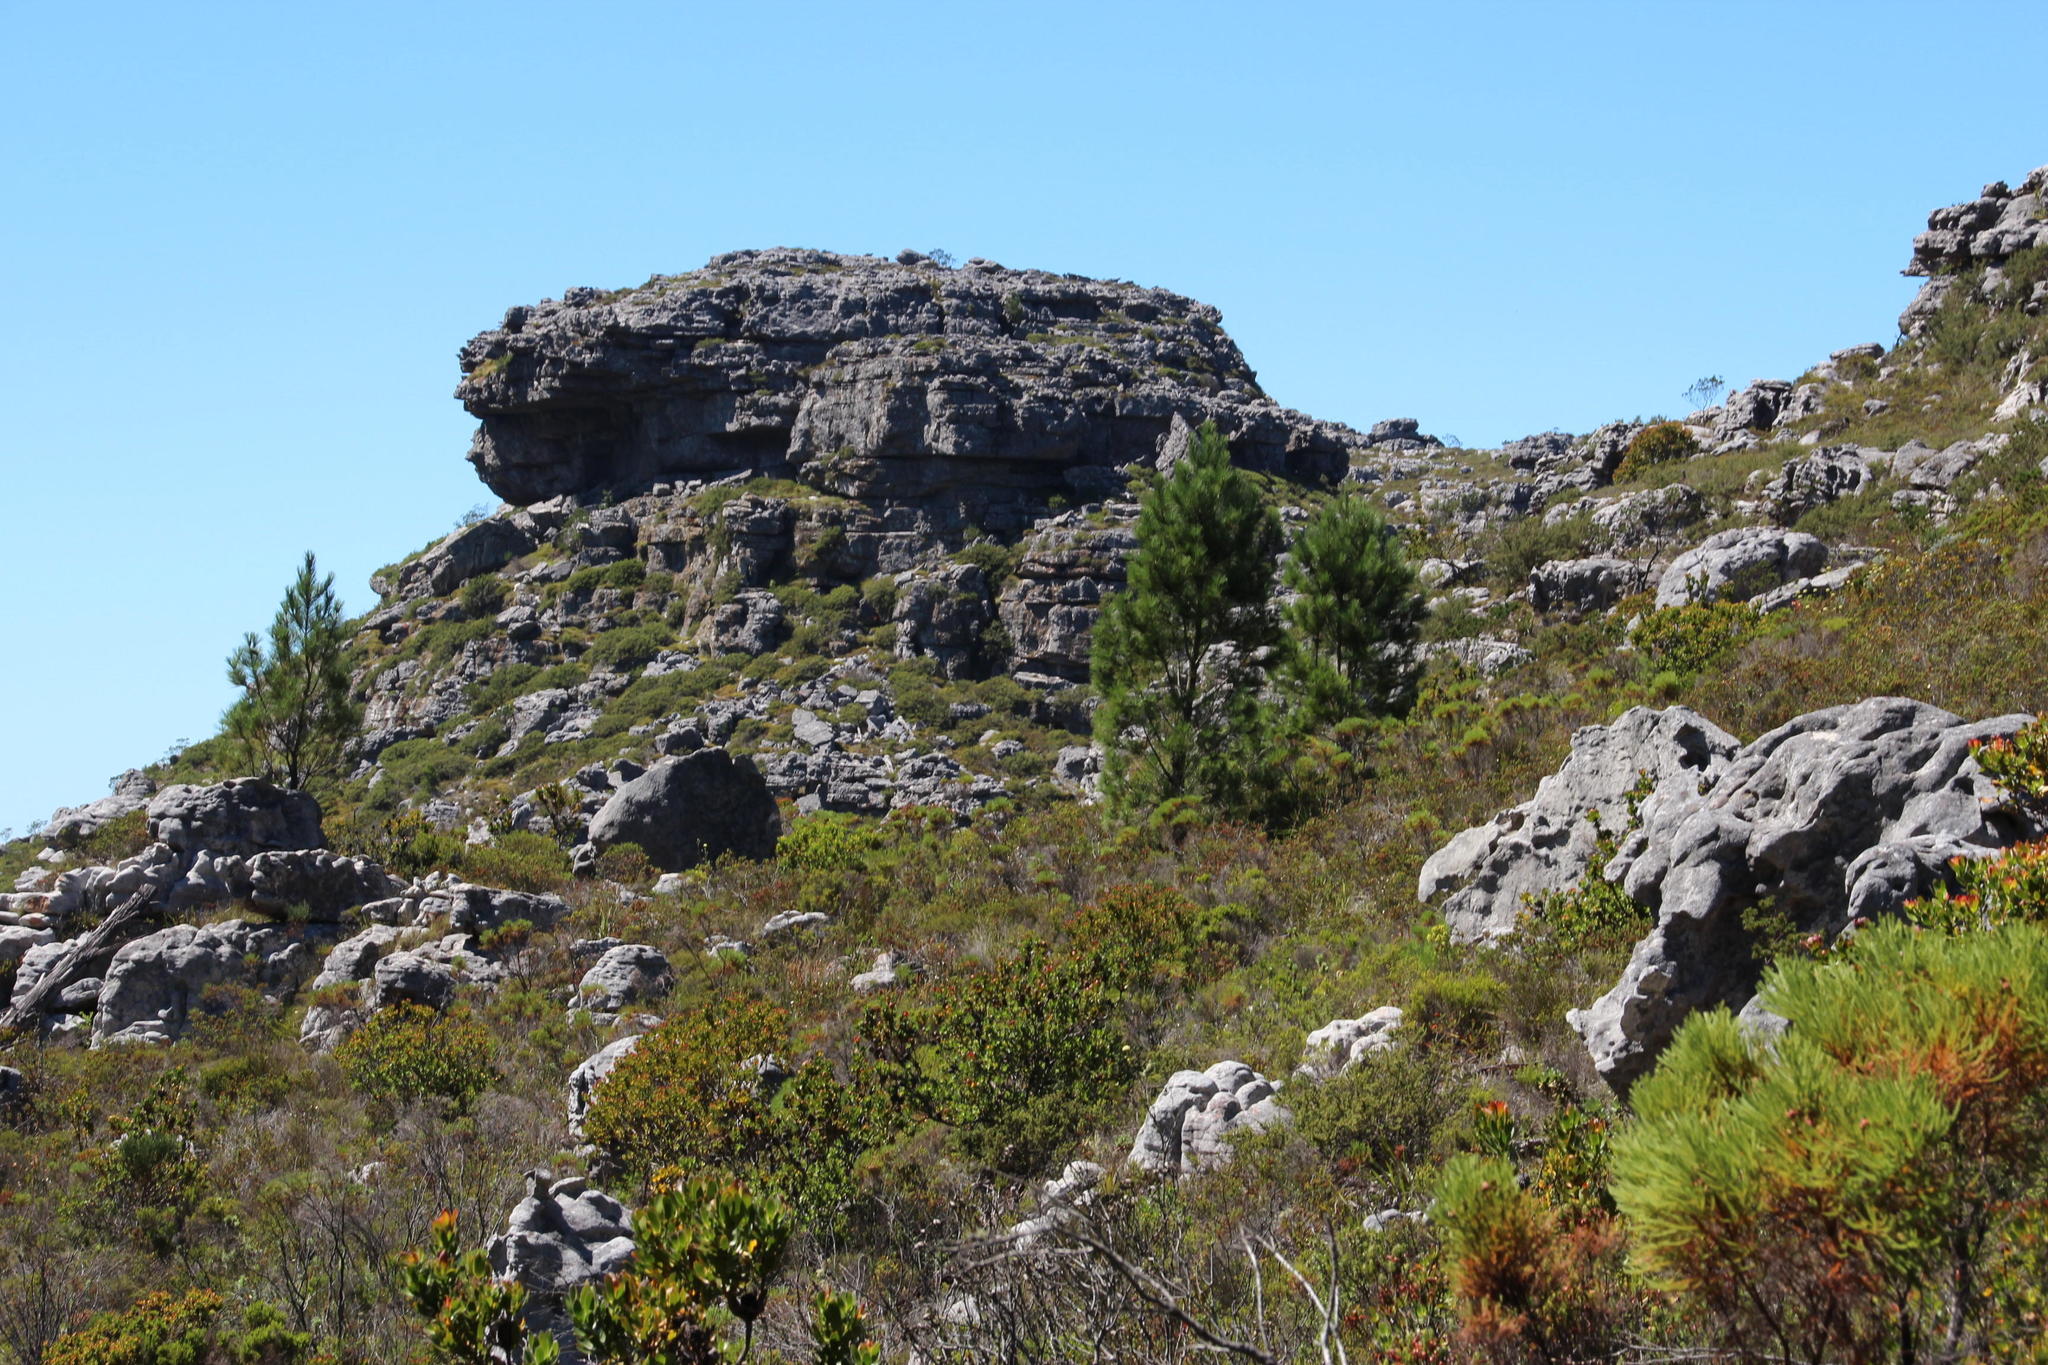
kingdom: Plantae
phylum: Tracheophyta
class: Pinopsida
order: Pinales
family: Pinaceae
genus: Pinus
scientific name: Pinus pinaster
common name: Maritime pine
